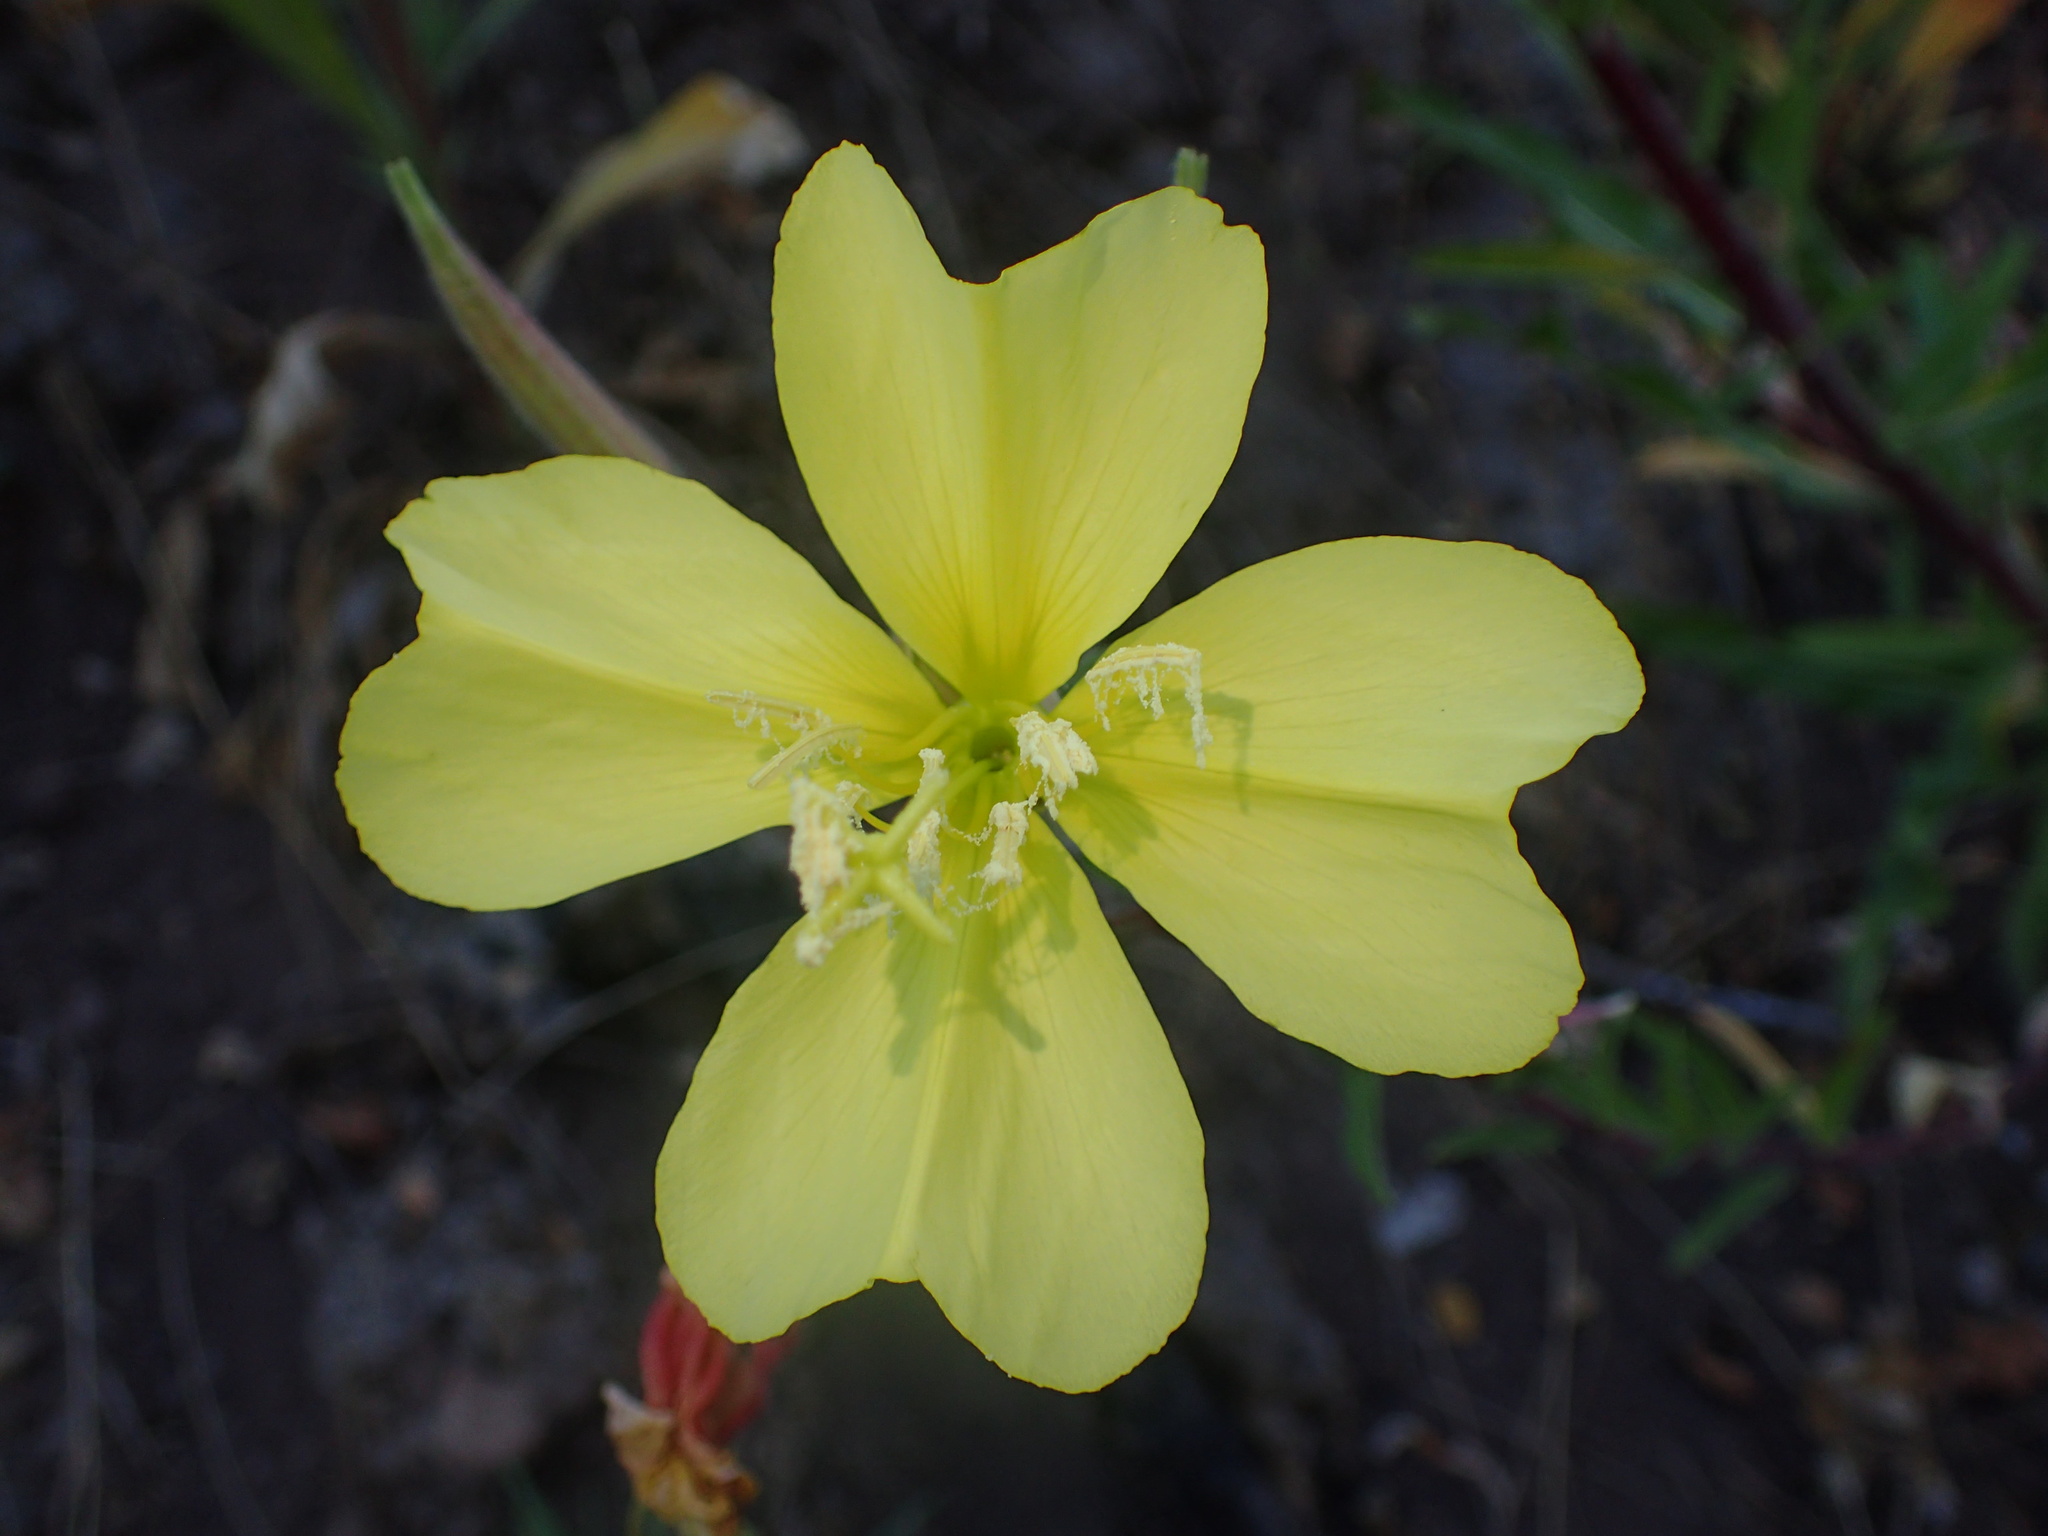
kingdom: Plantae
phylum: Tracheophyta
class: Magnoliopsida
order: Myrtales
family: Onagraceae
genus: Oenothera
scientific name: Oenothera elata
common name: Hooker's evening-primrose
